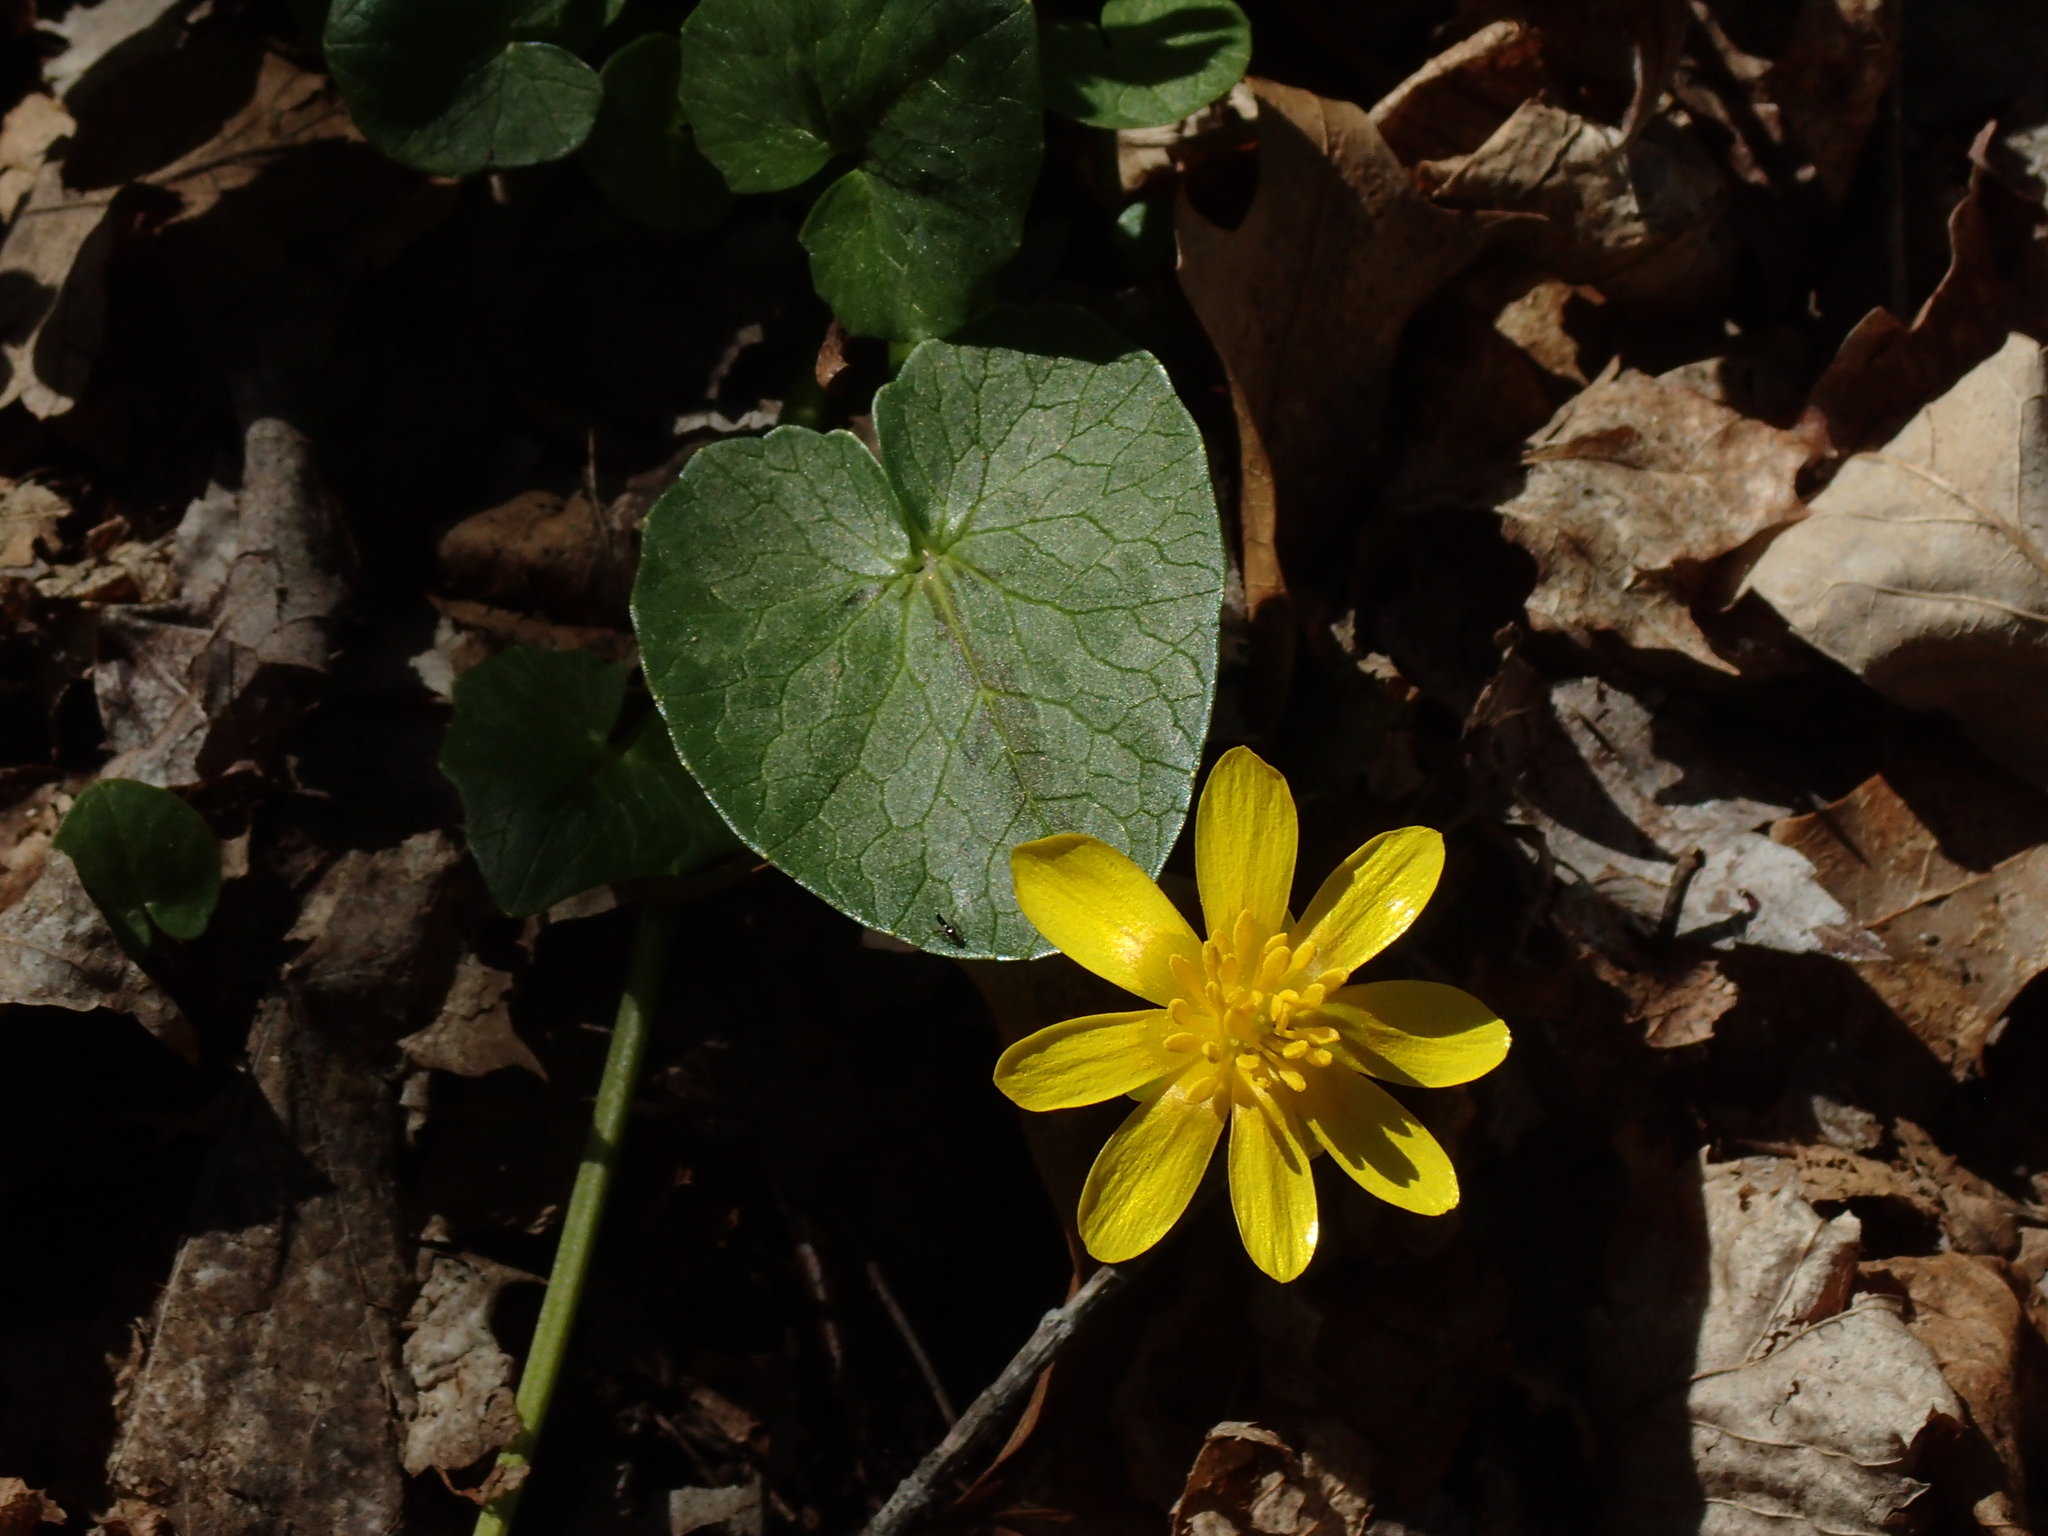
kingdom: Plantae
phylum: Tracheophyta
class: Magnoliopsida
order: Ranunculales
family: Ranunculaceae
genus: Ficaria
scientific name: Ficaria verna
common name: Lesser celandine
